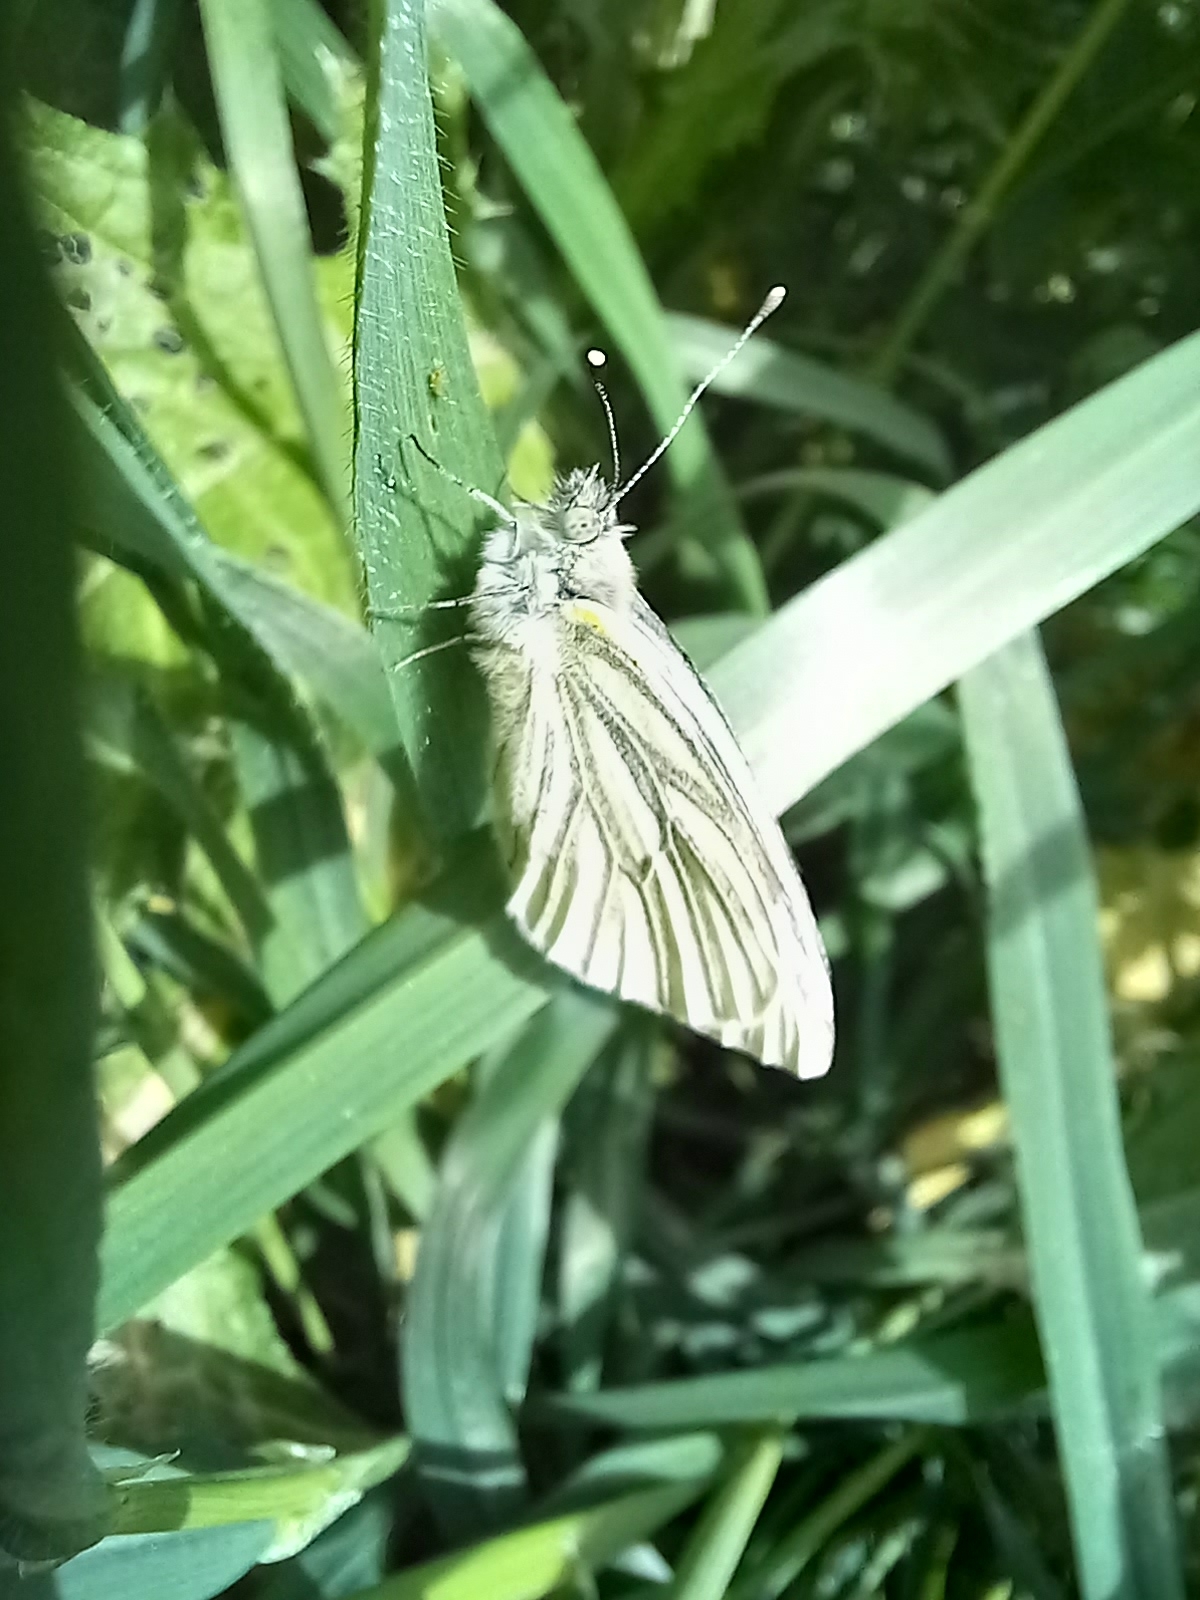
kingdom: Animalia
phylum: Arthropoda
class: Insecta
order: Lepidoptera
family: Pieridae
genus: Pieris
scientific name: Pieris napi
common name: Green-veined white
